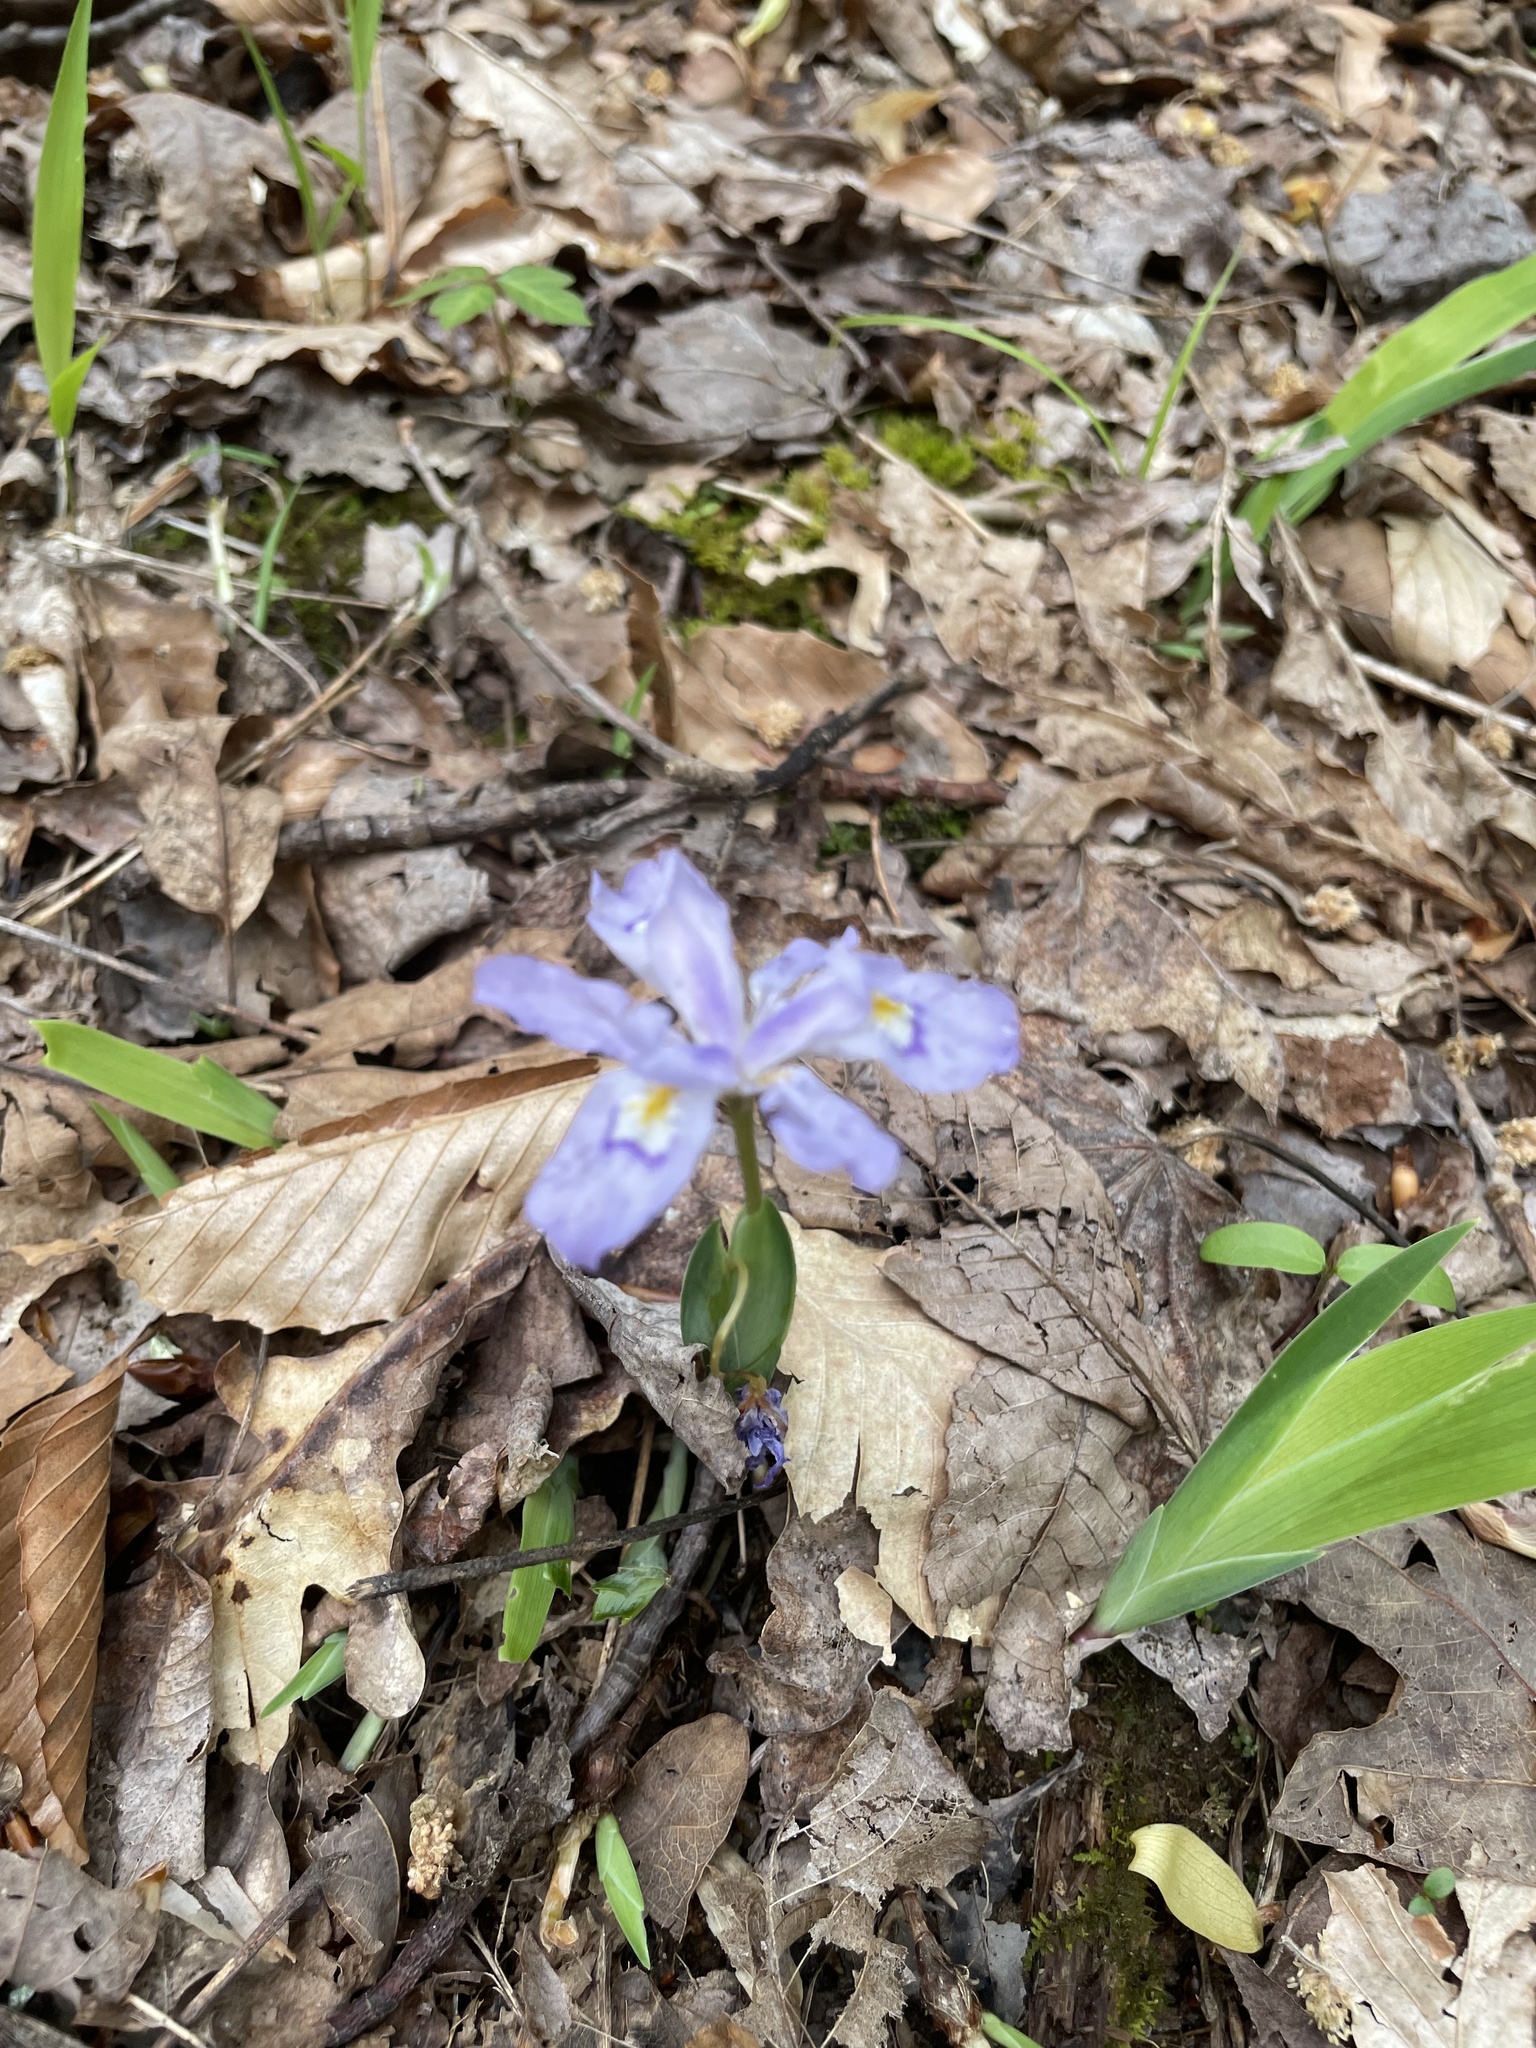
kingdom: Plantae
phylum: Tracheophyta
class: Liliopsida
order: Asparagales
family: Iridaceae
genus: Iris
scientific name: Iris cristata
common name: Crested iris
